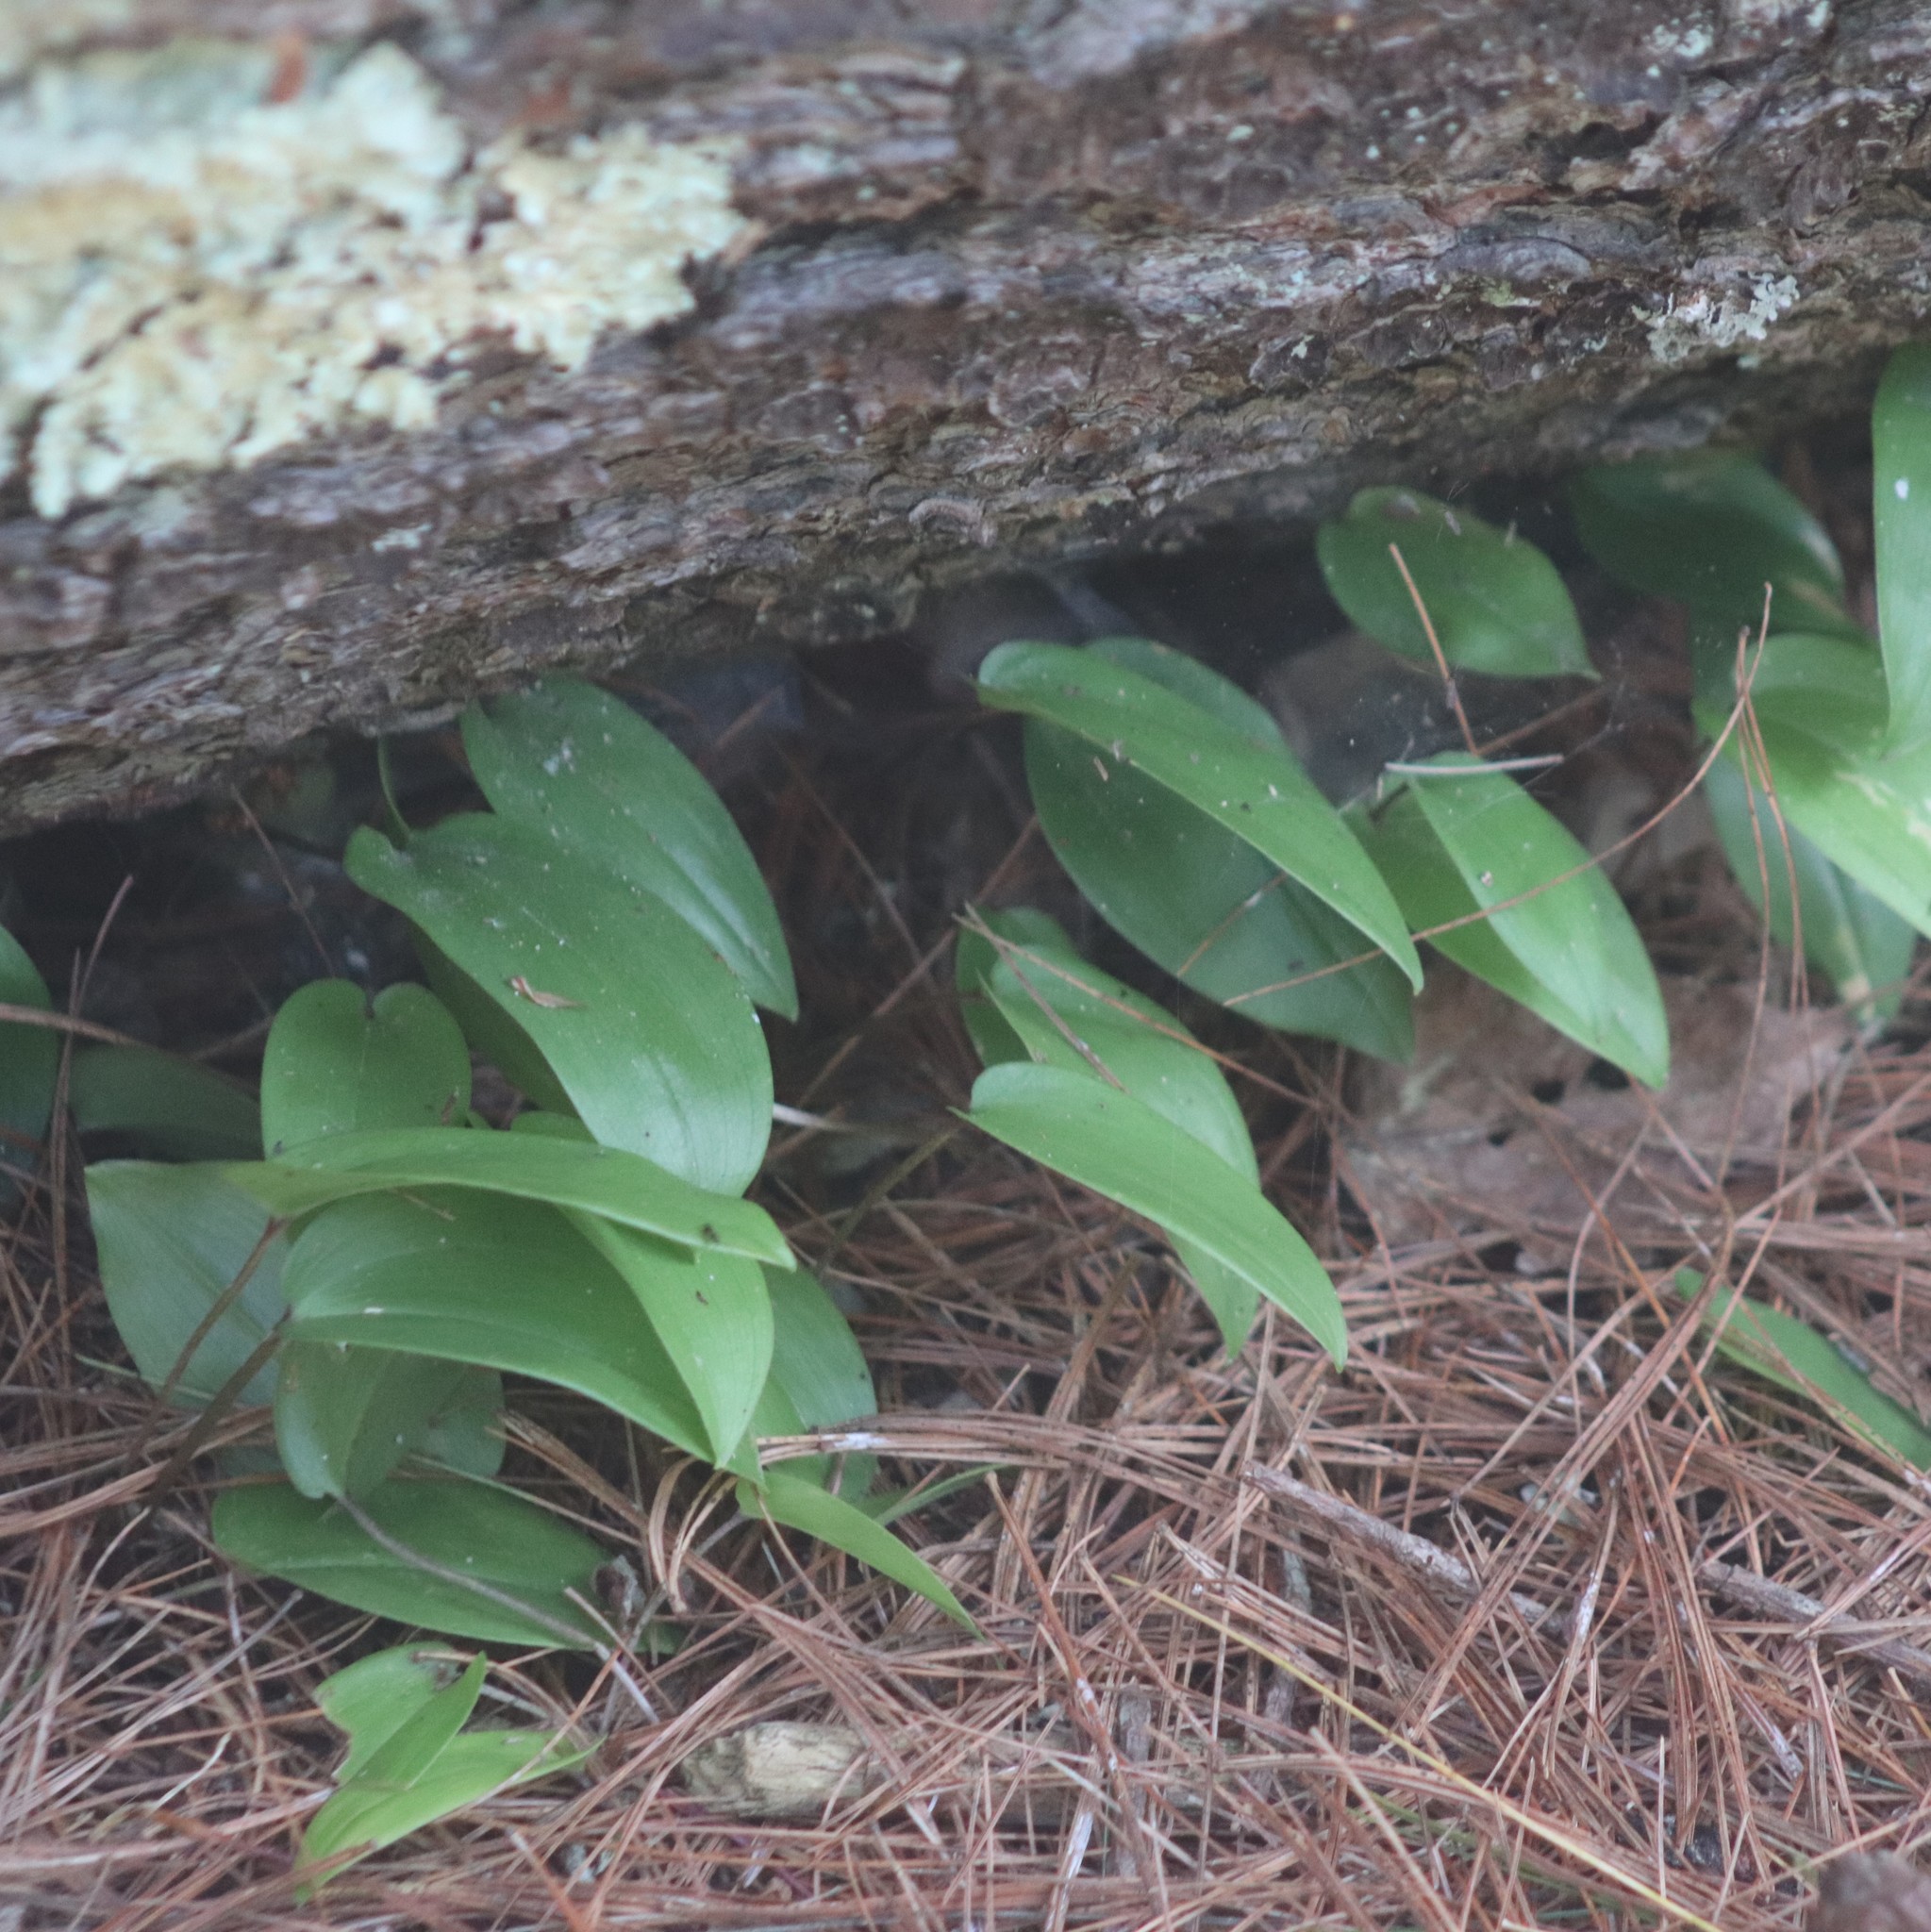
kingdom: Plantae
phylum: Tracheophyta
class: Liliopsida
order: Asparagales
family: Asparagaceae
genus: Maianthemum
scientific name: Maianthemum canadense
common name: False lily-of-the-valley
